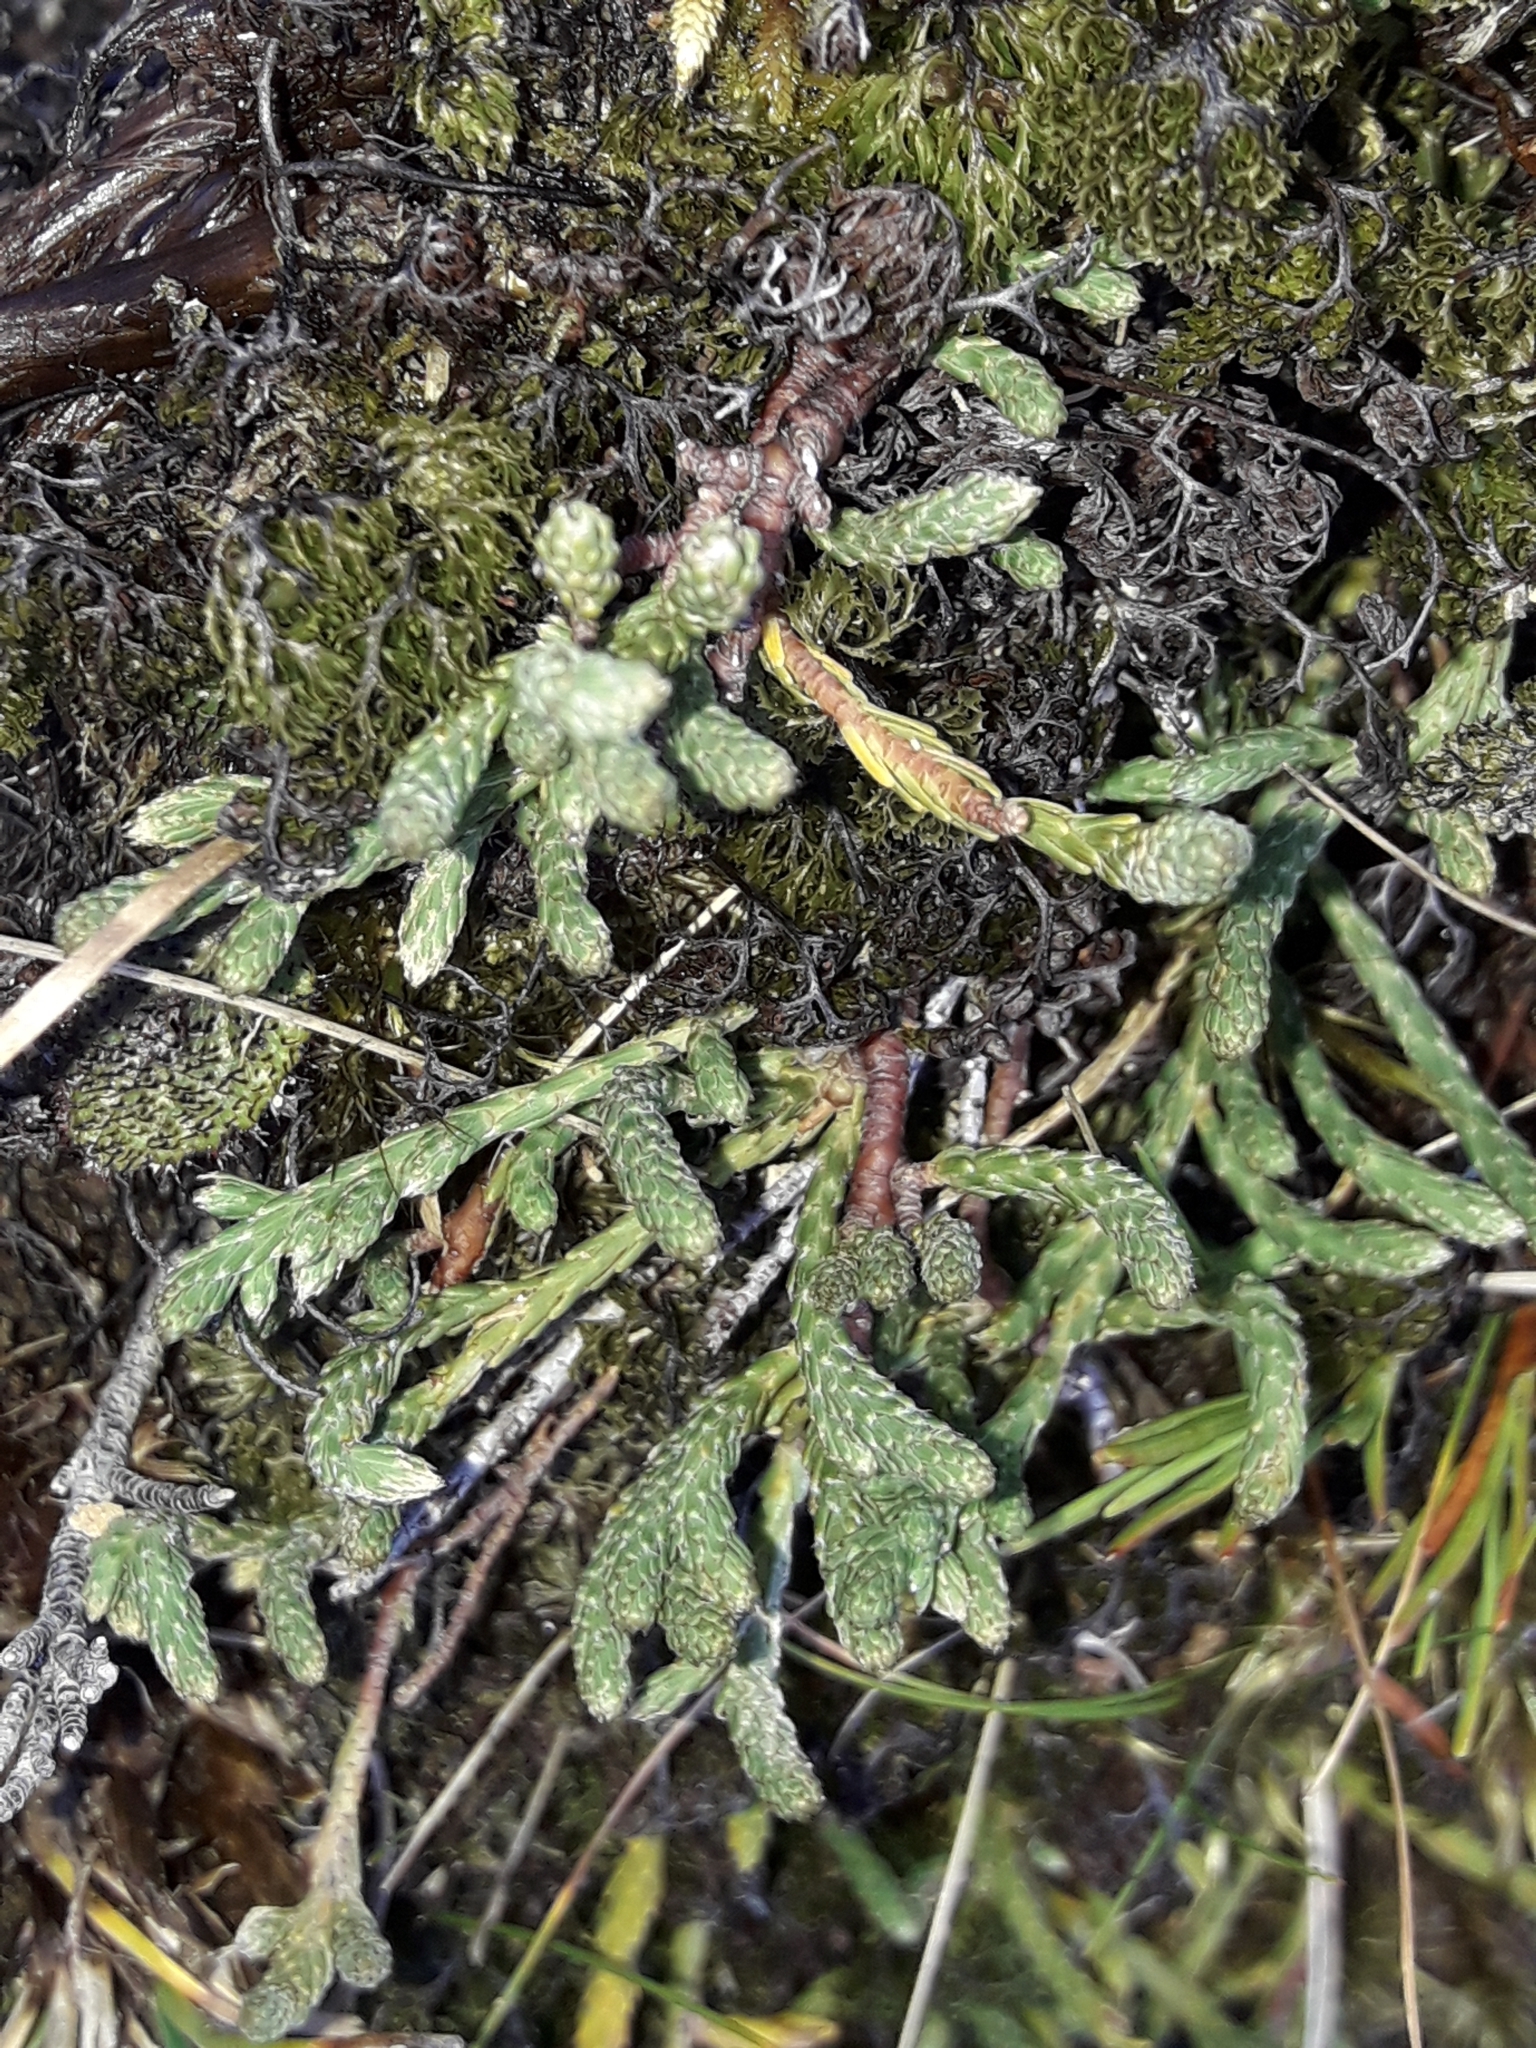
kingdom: Plantae
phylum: Tracheophyta
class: Magnoliopsida
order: Malvales
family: Thymelaeaceae
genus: Kelleria
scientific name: Kelleria dieffenbachii
